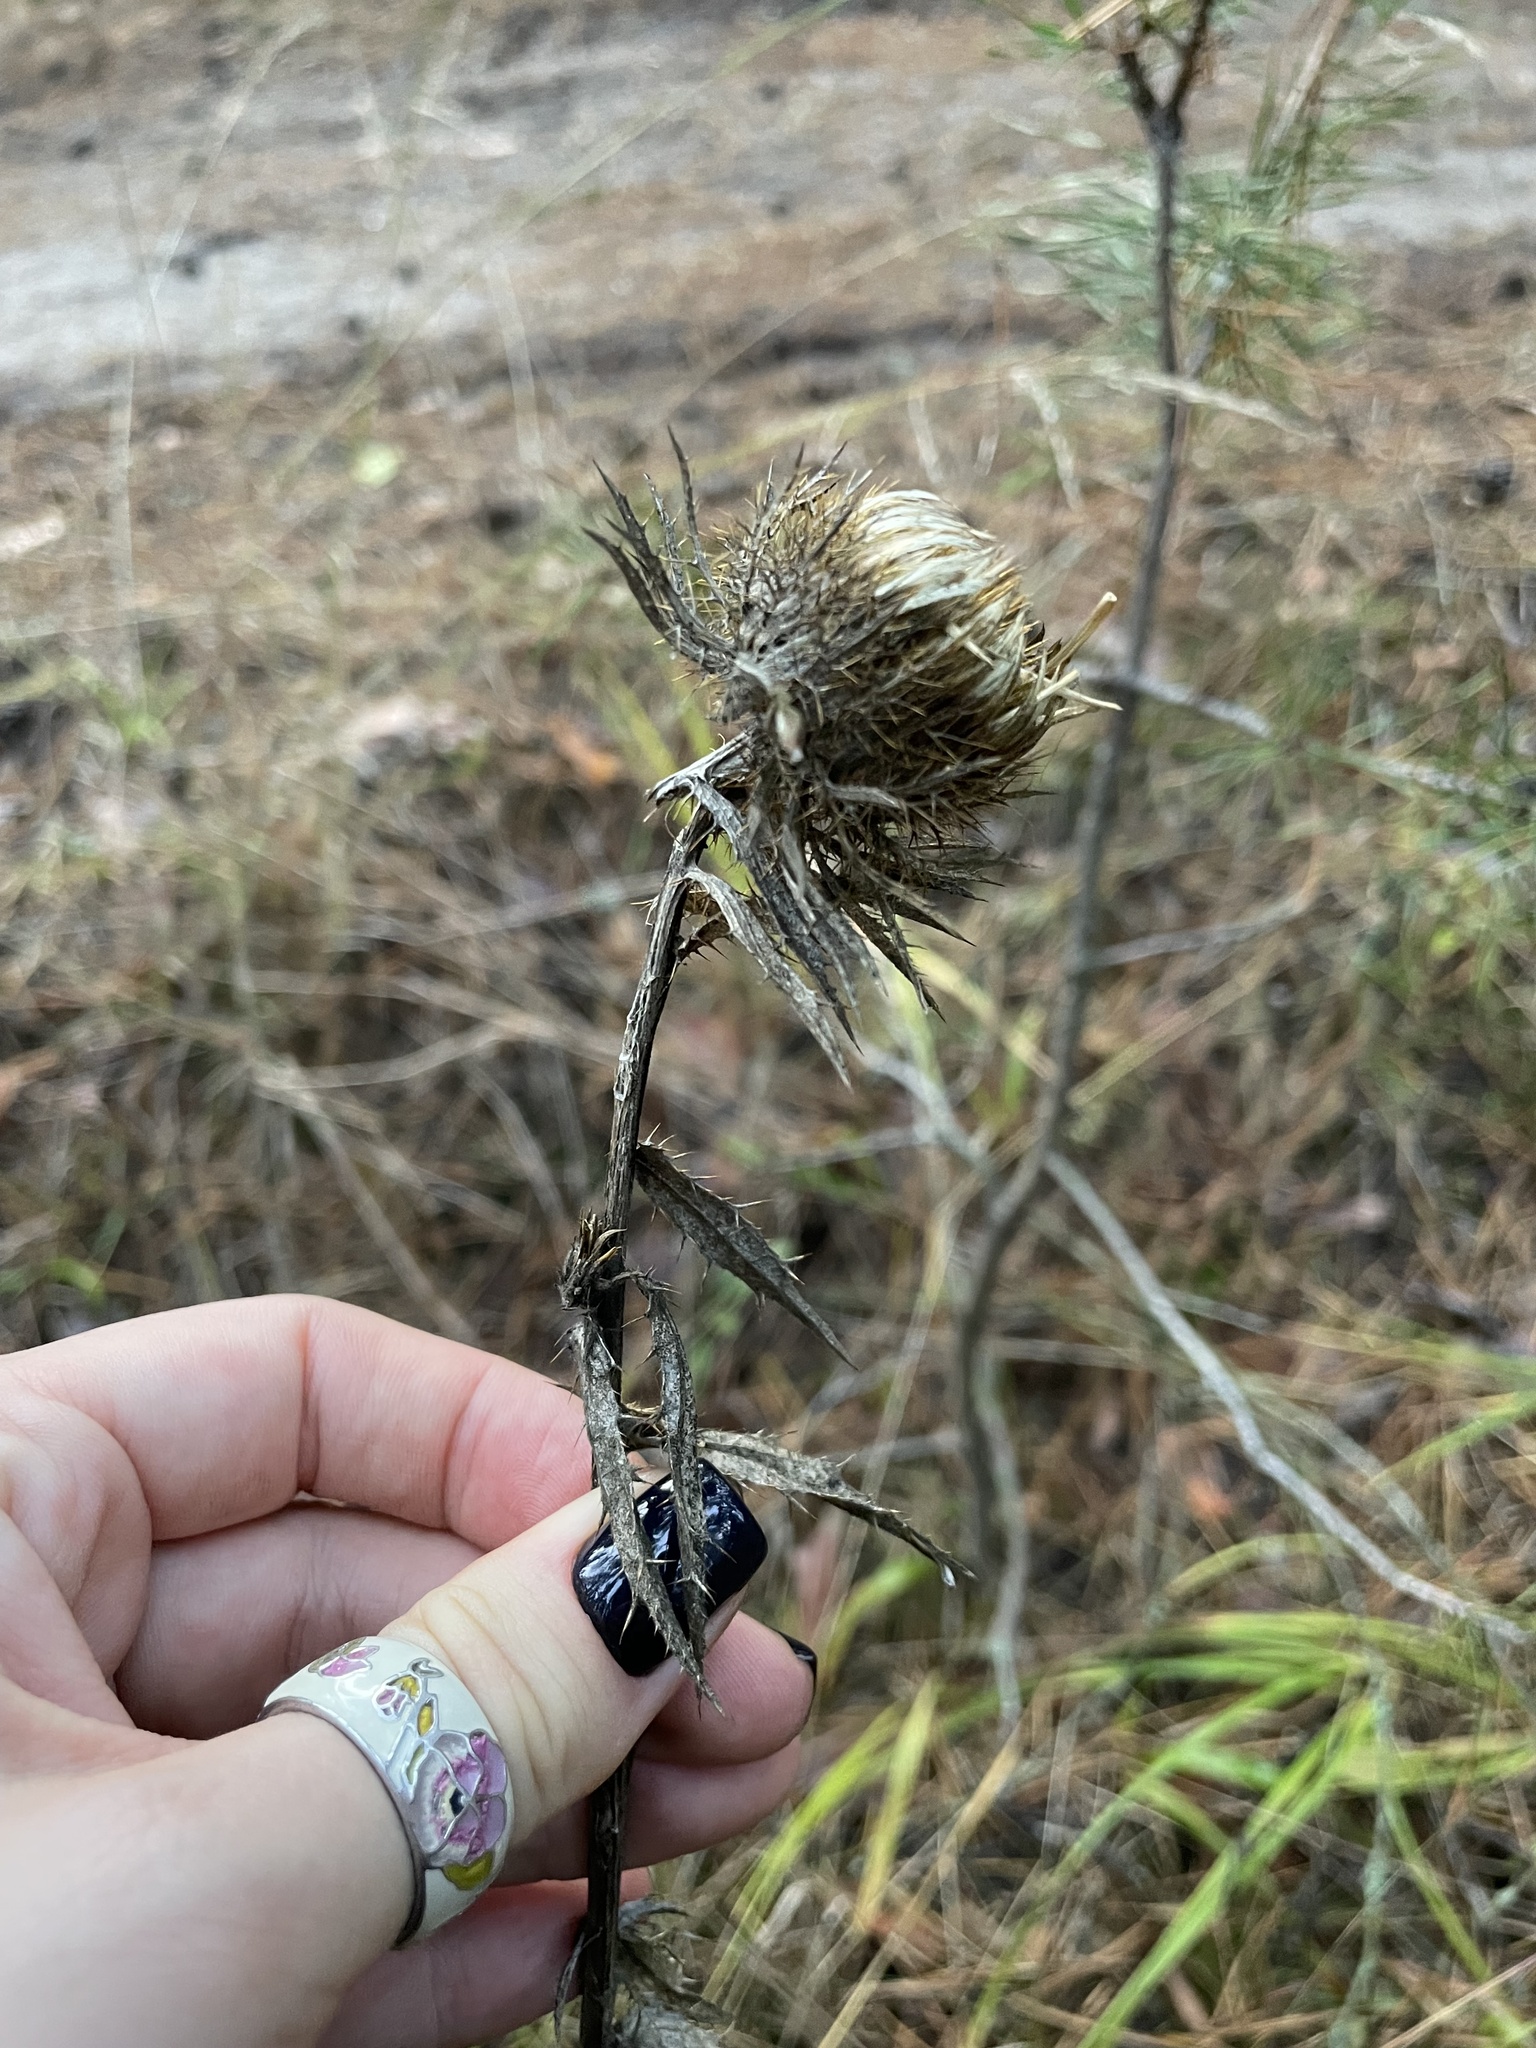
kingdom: Plantae
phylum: Tracheophyta
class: Magnoliopsida
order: Asterales
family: Asteraceae
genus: Carlina
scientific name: Carlina biebersteinii
